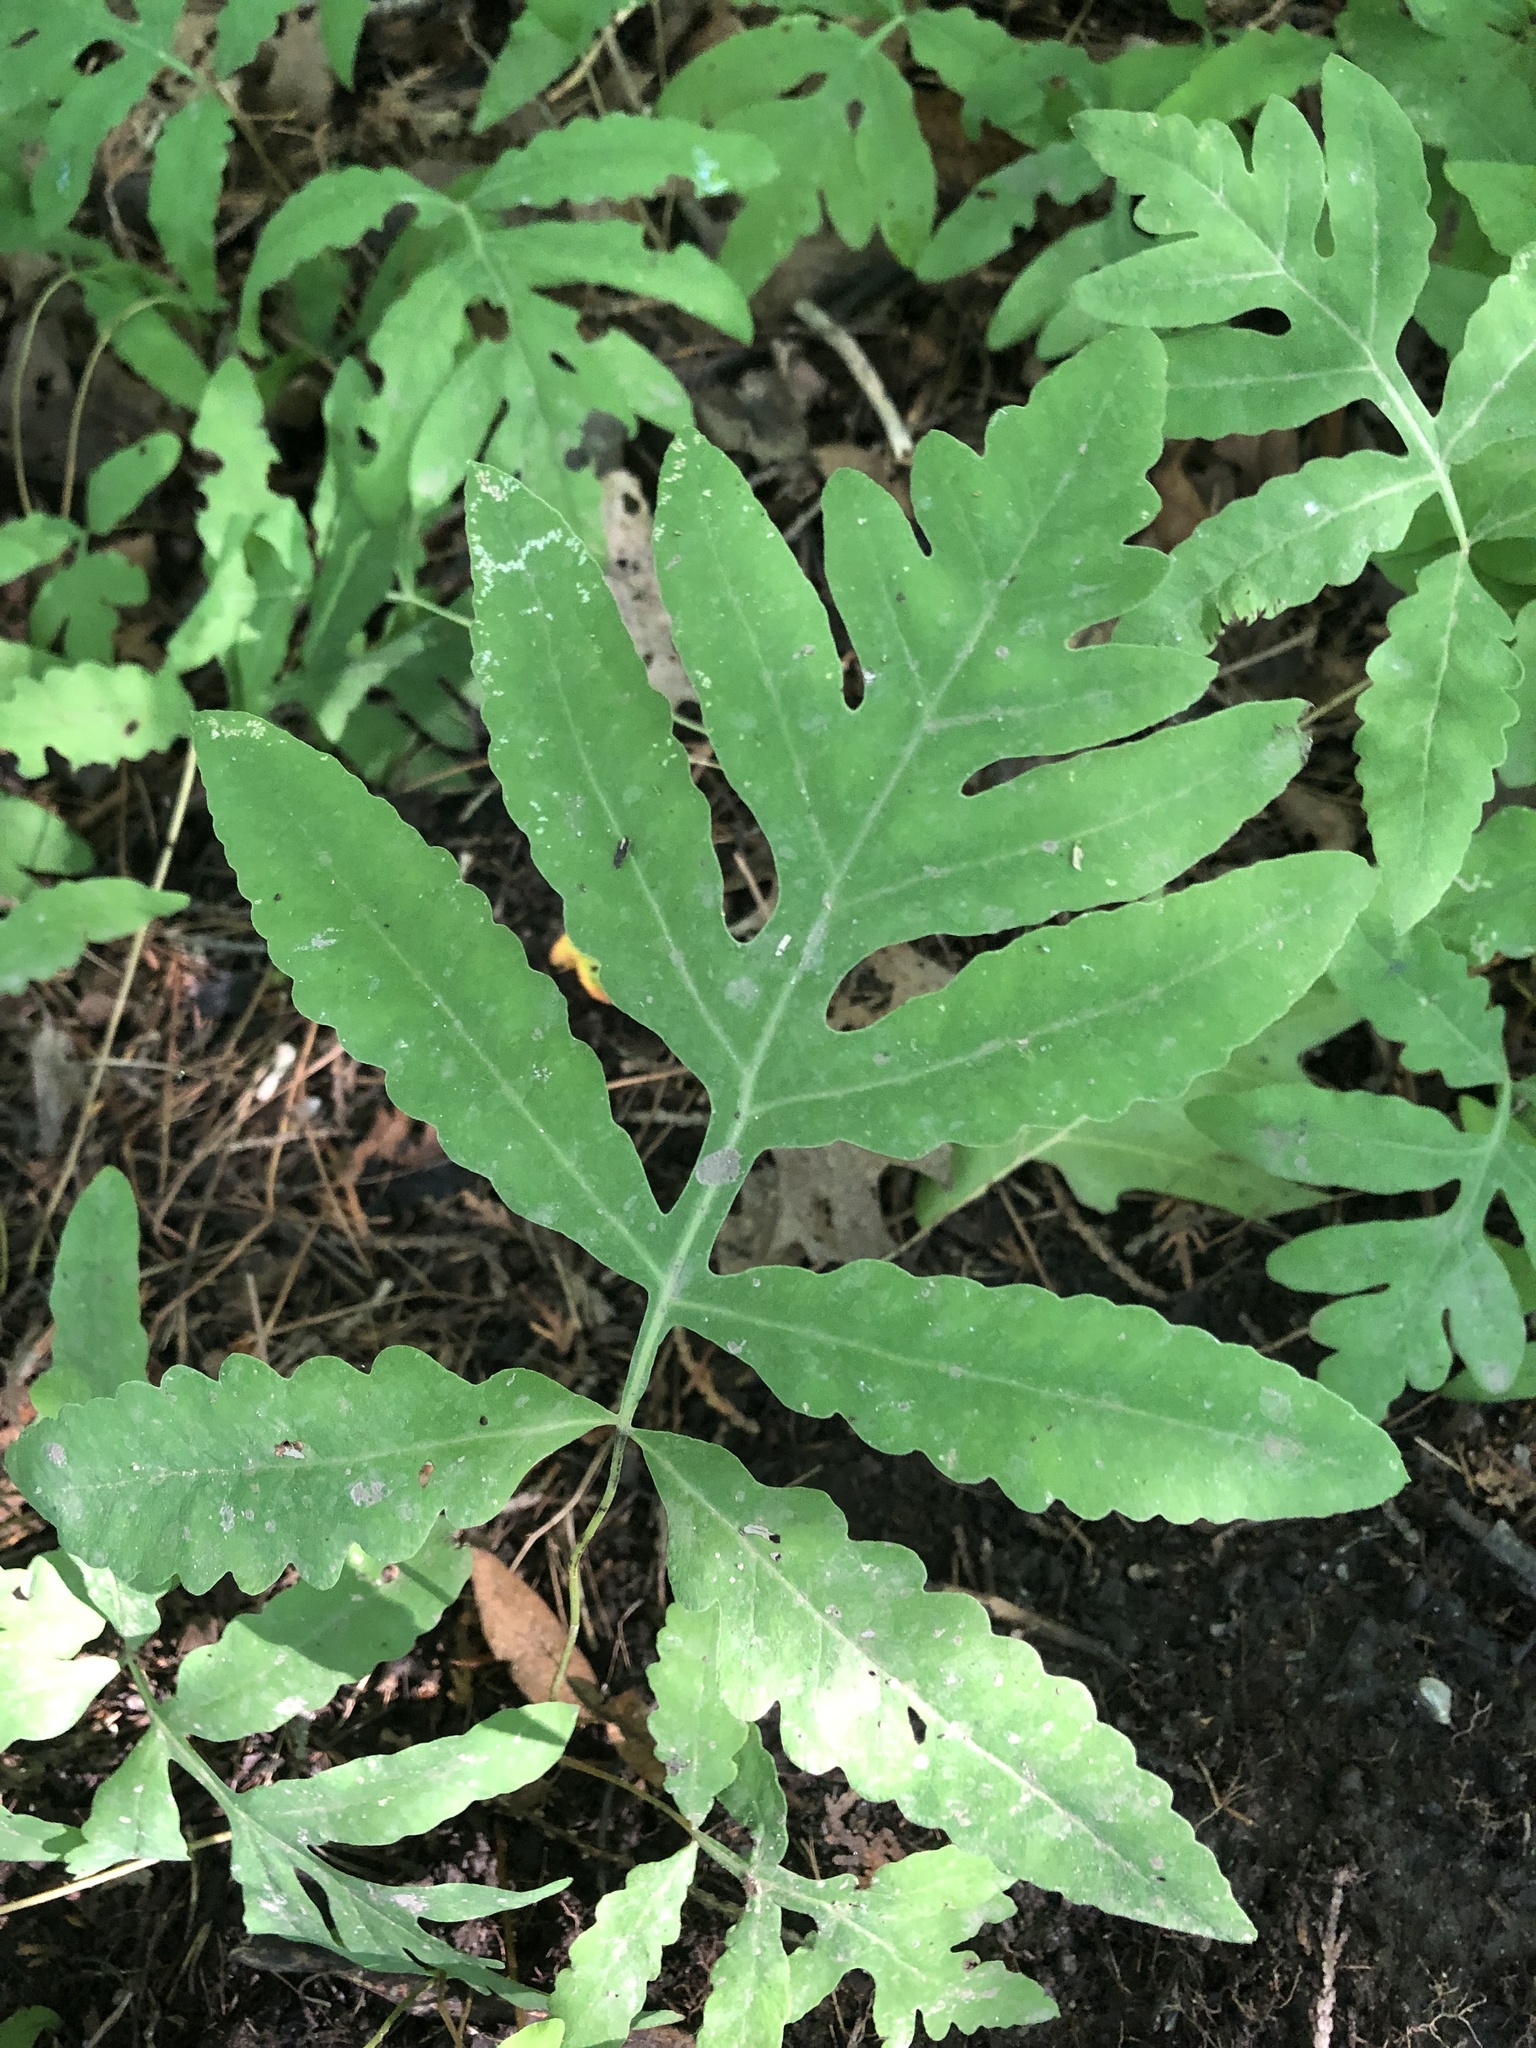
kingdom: Plantae
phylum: Tracheophyta
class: Polypodiopsida
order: Polypodiales
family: Onocleaceae
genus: Onoclea
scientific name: Onoclea sensibilis
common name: Sensitive fern
